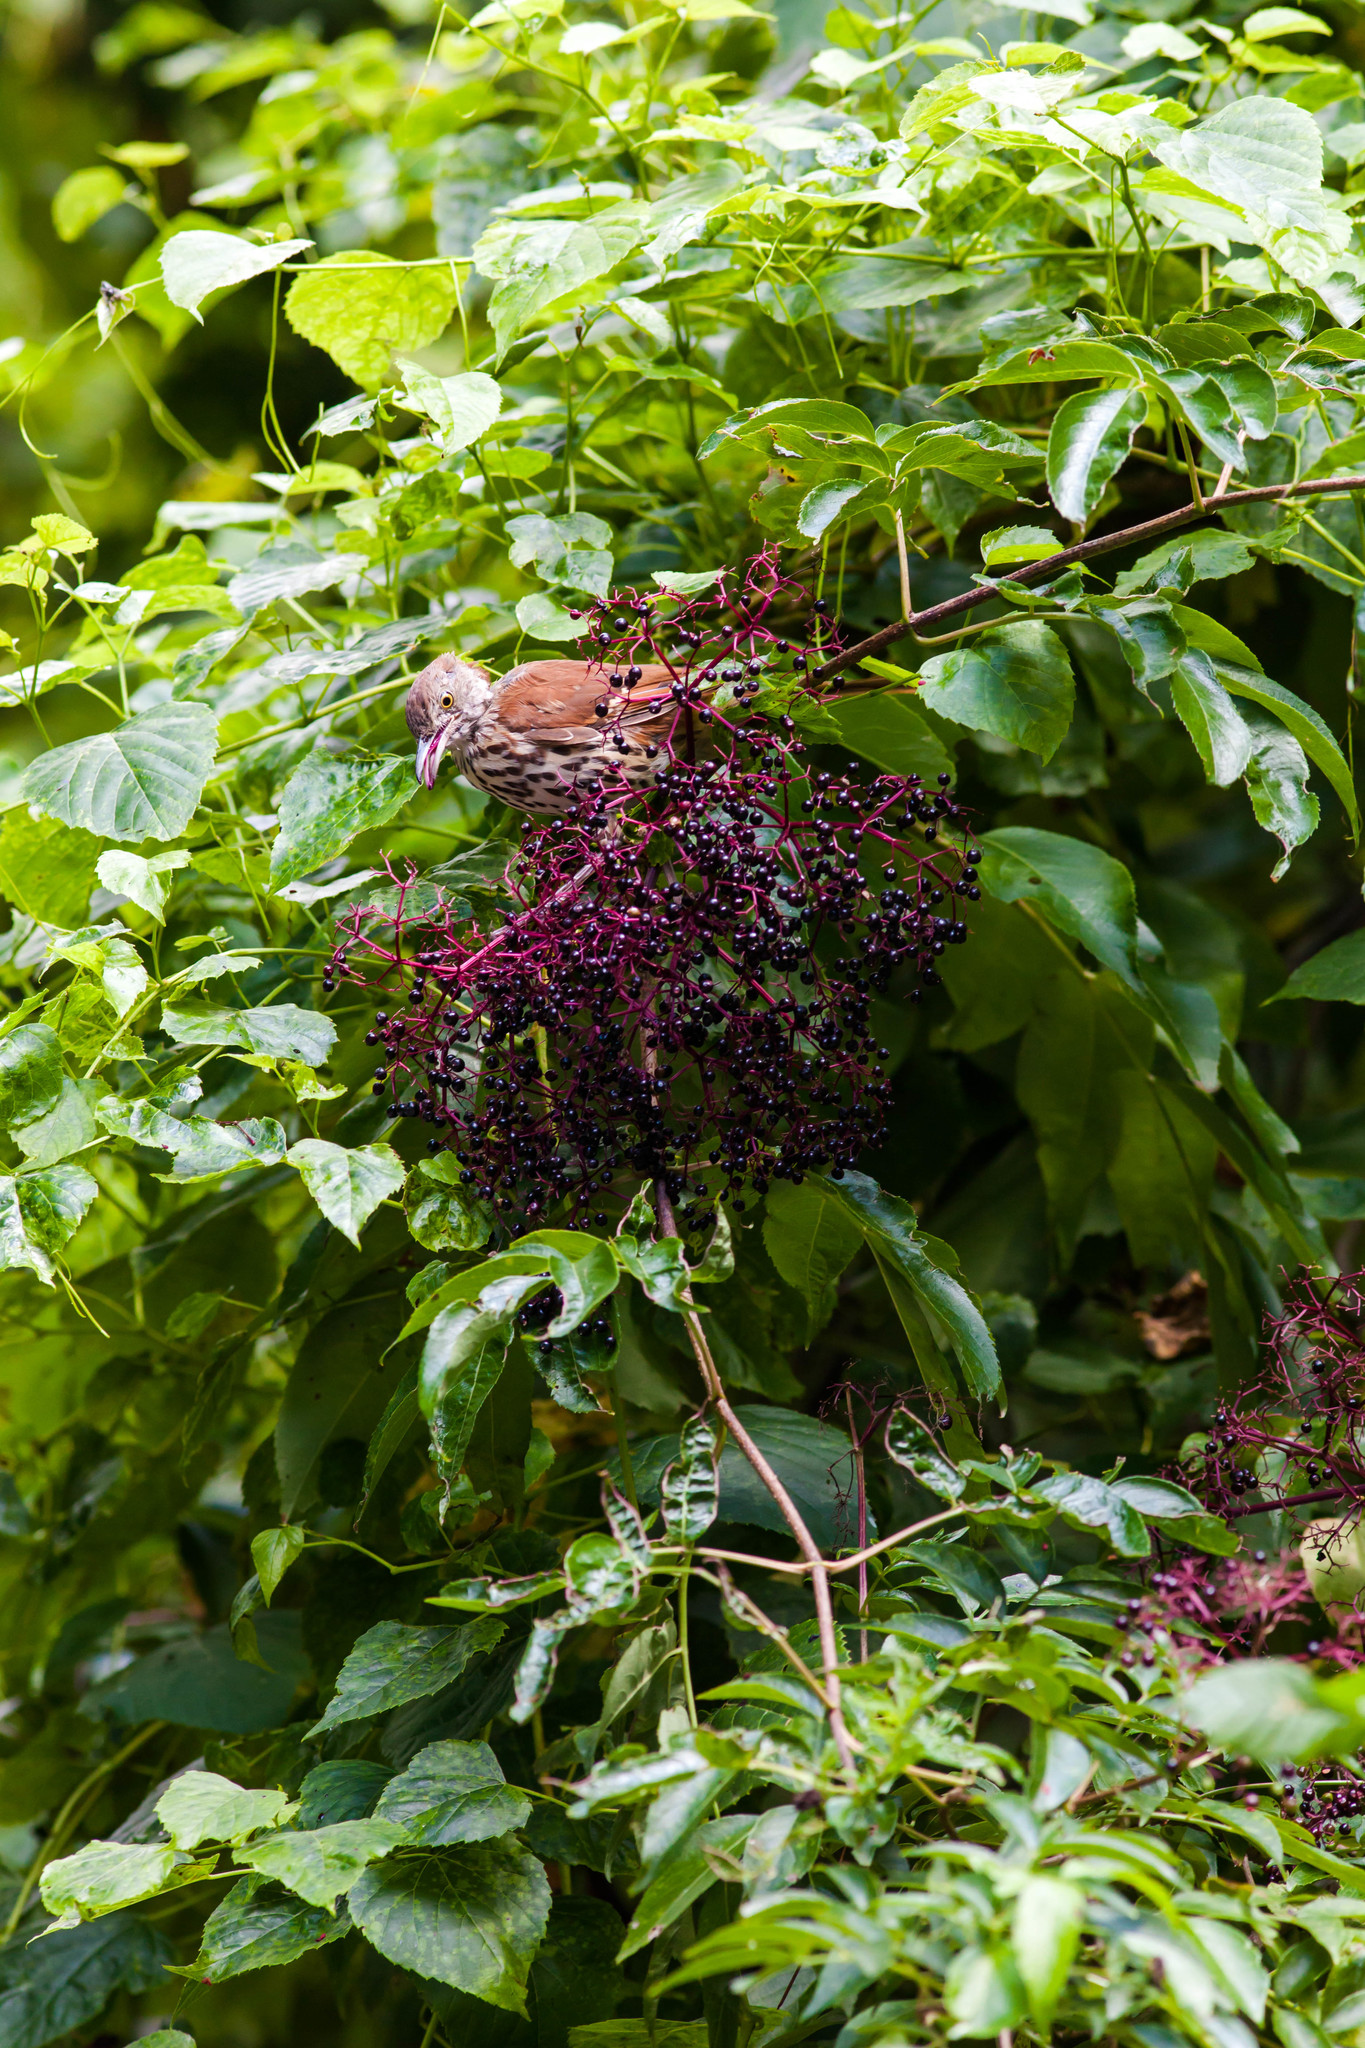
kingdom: Animalia
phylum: Chordata
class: Aves
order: Passeriformes
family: Mimidae
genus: Toxostoma
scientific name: Toxostoma rufum
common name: Brown thrasher
